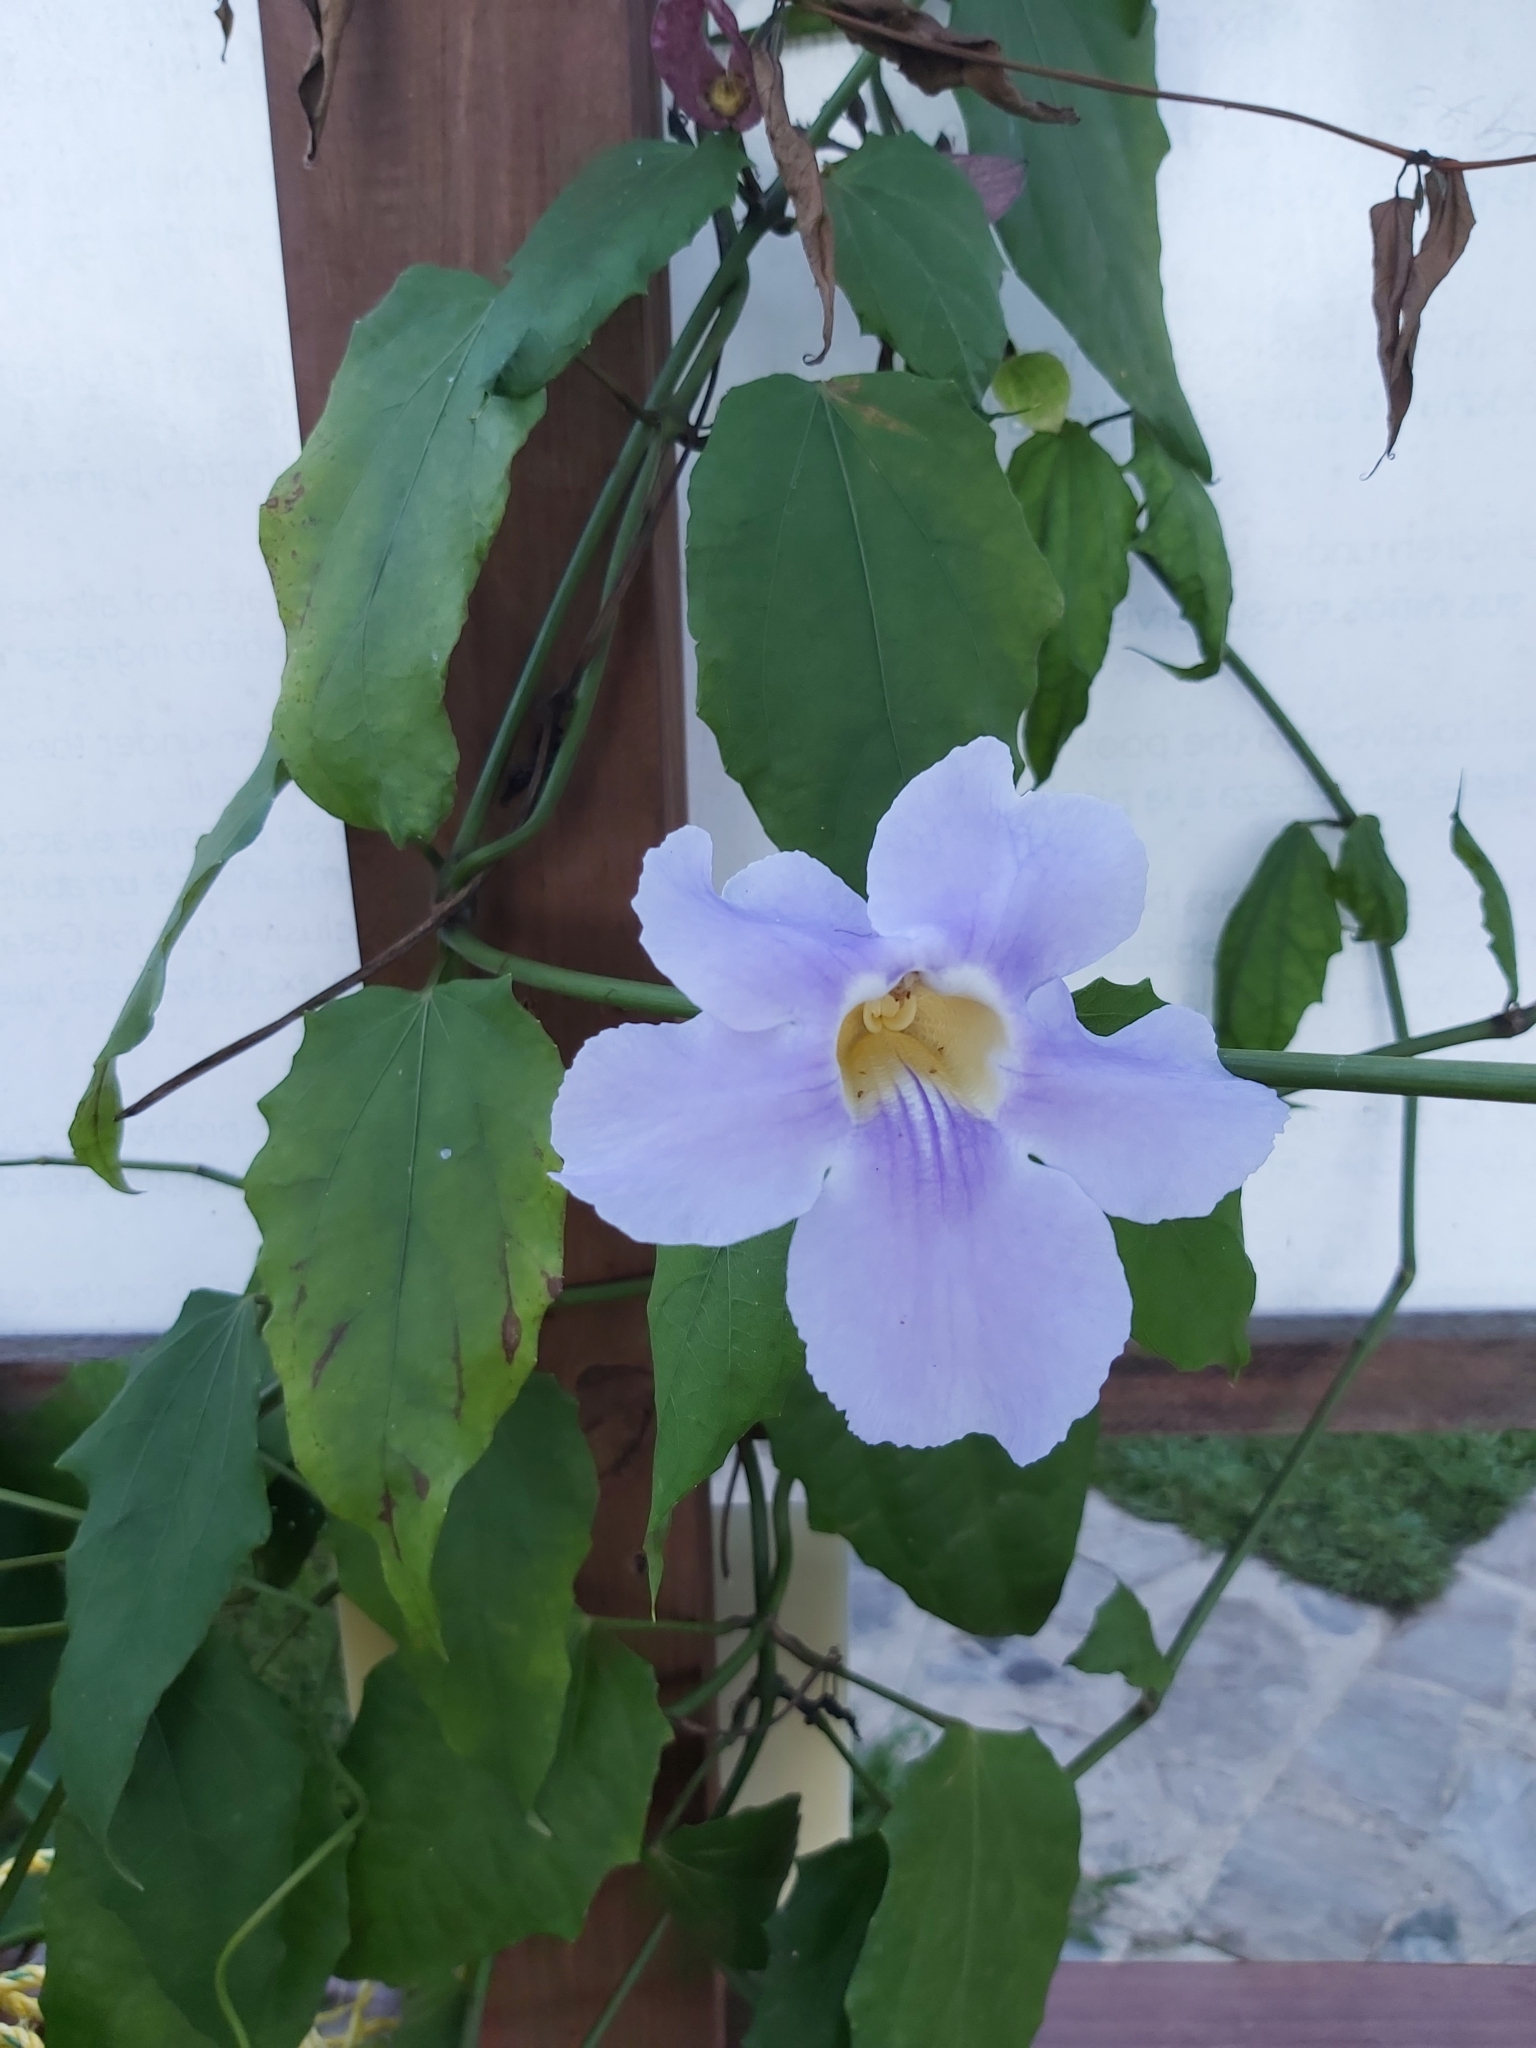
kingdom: Plantae
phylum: Tracheophyta
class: Magnoliopsida
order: Lamiales
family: Acanthaceae
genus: Thunbergia
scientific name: Thunbergia grandiflora
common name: Bengal trumpet
